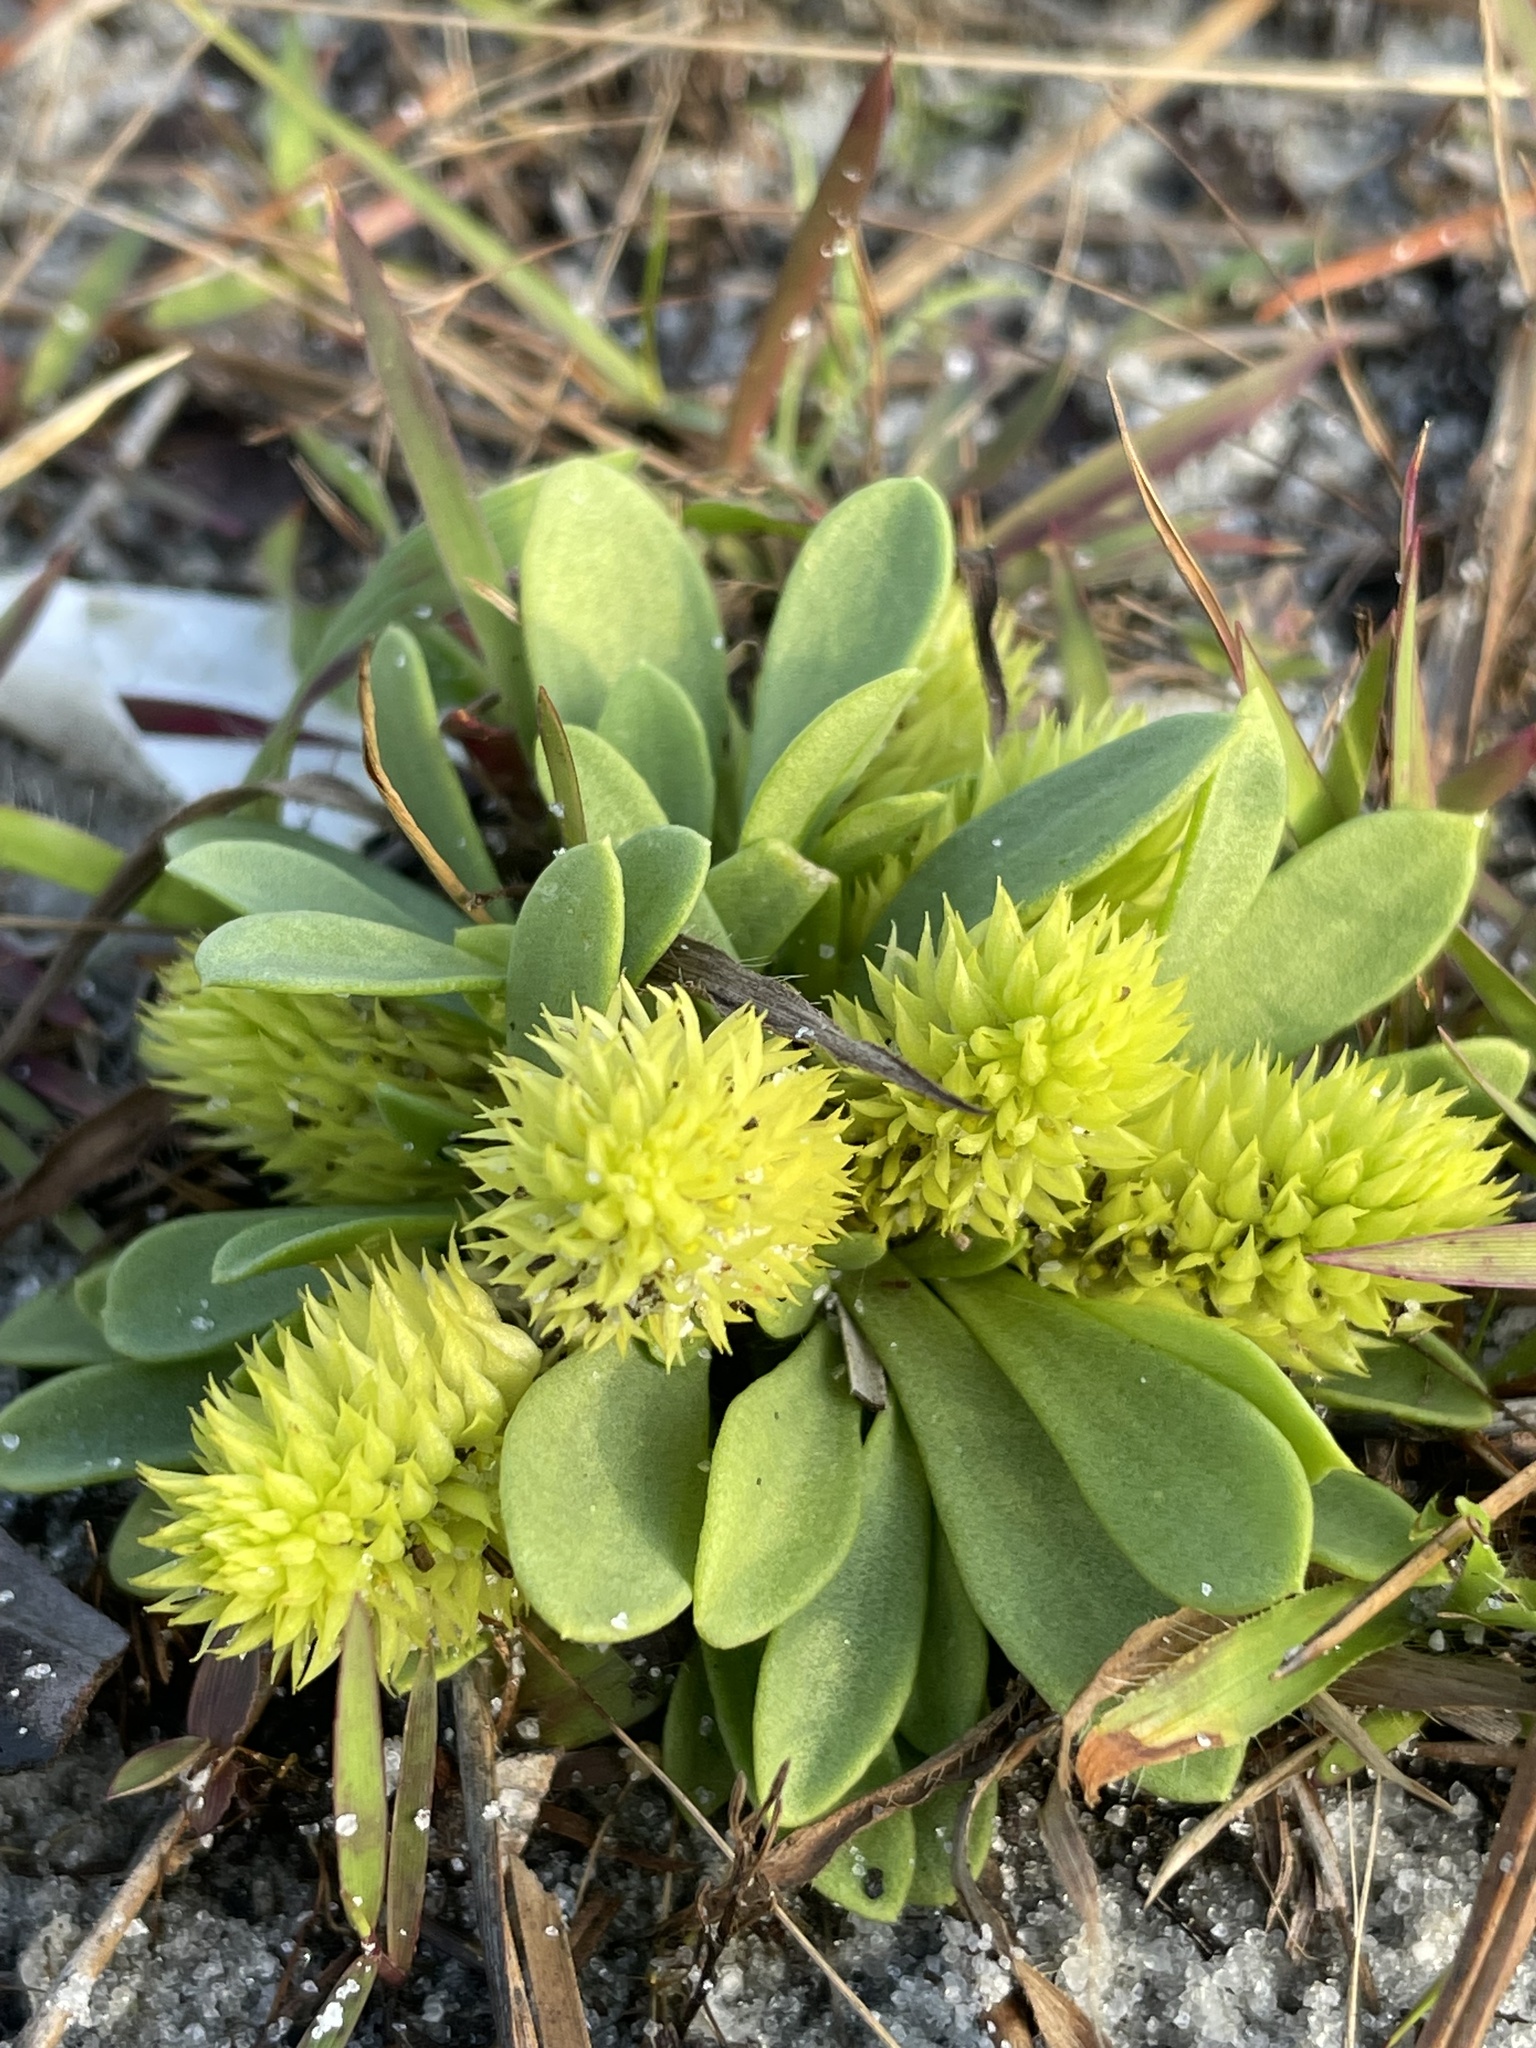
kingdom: Plantae
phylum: Tracheophyta
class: Magnoliopsida
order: Fabales
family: Polygalaceae
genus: Polygala
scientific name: Polygala nana
